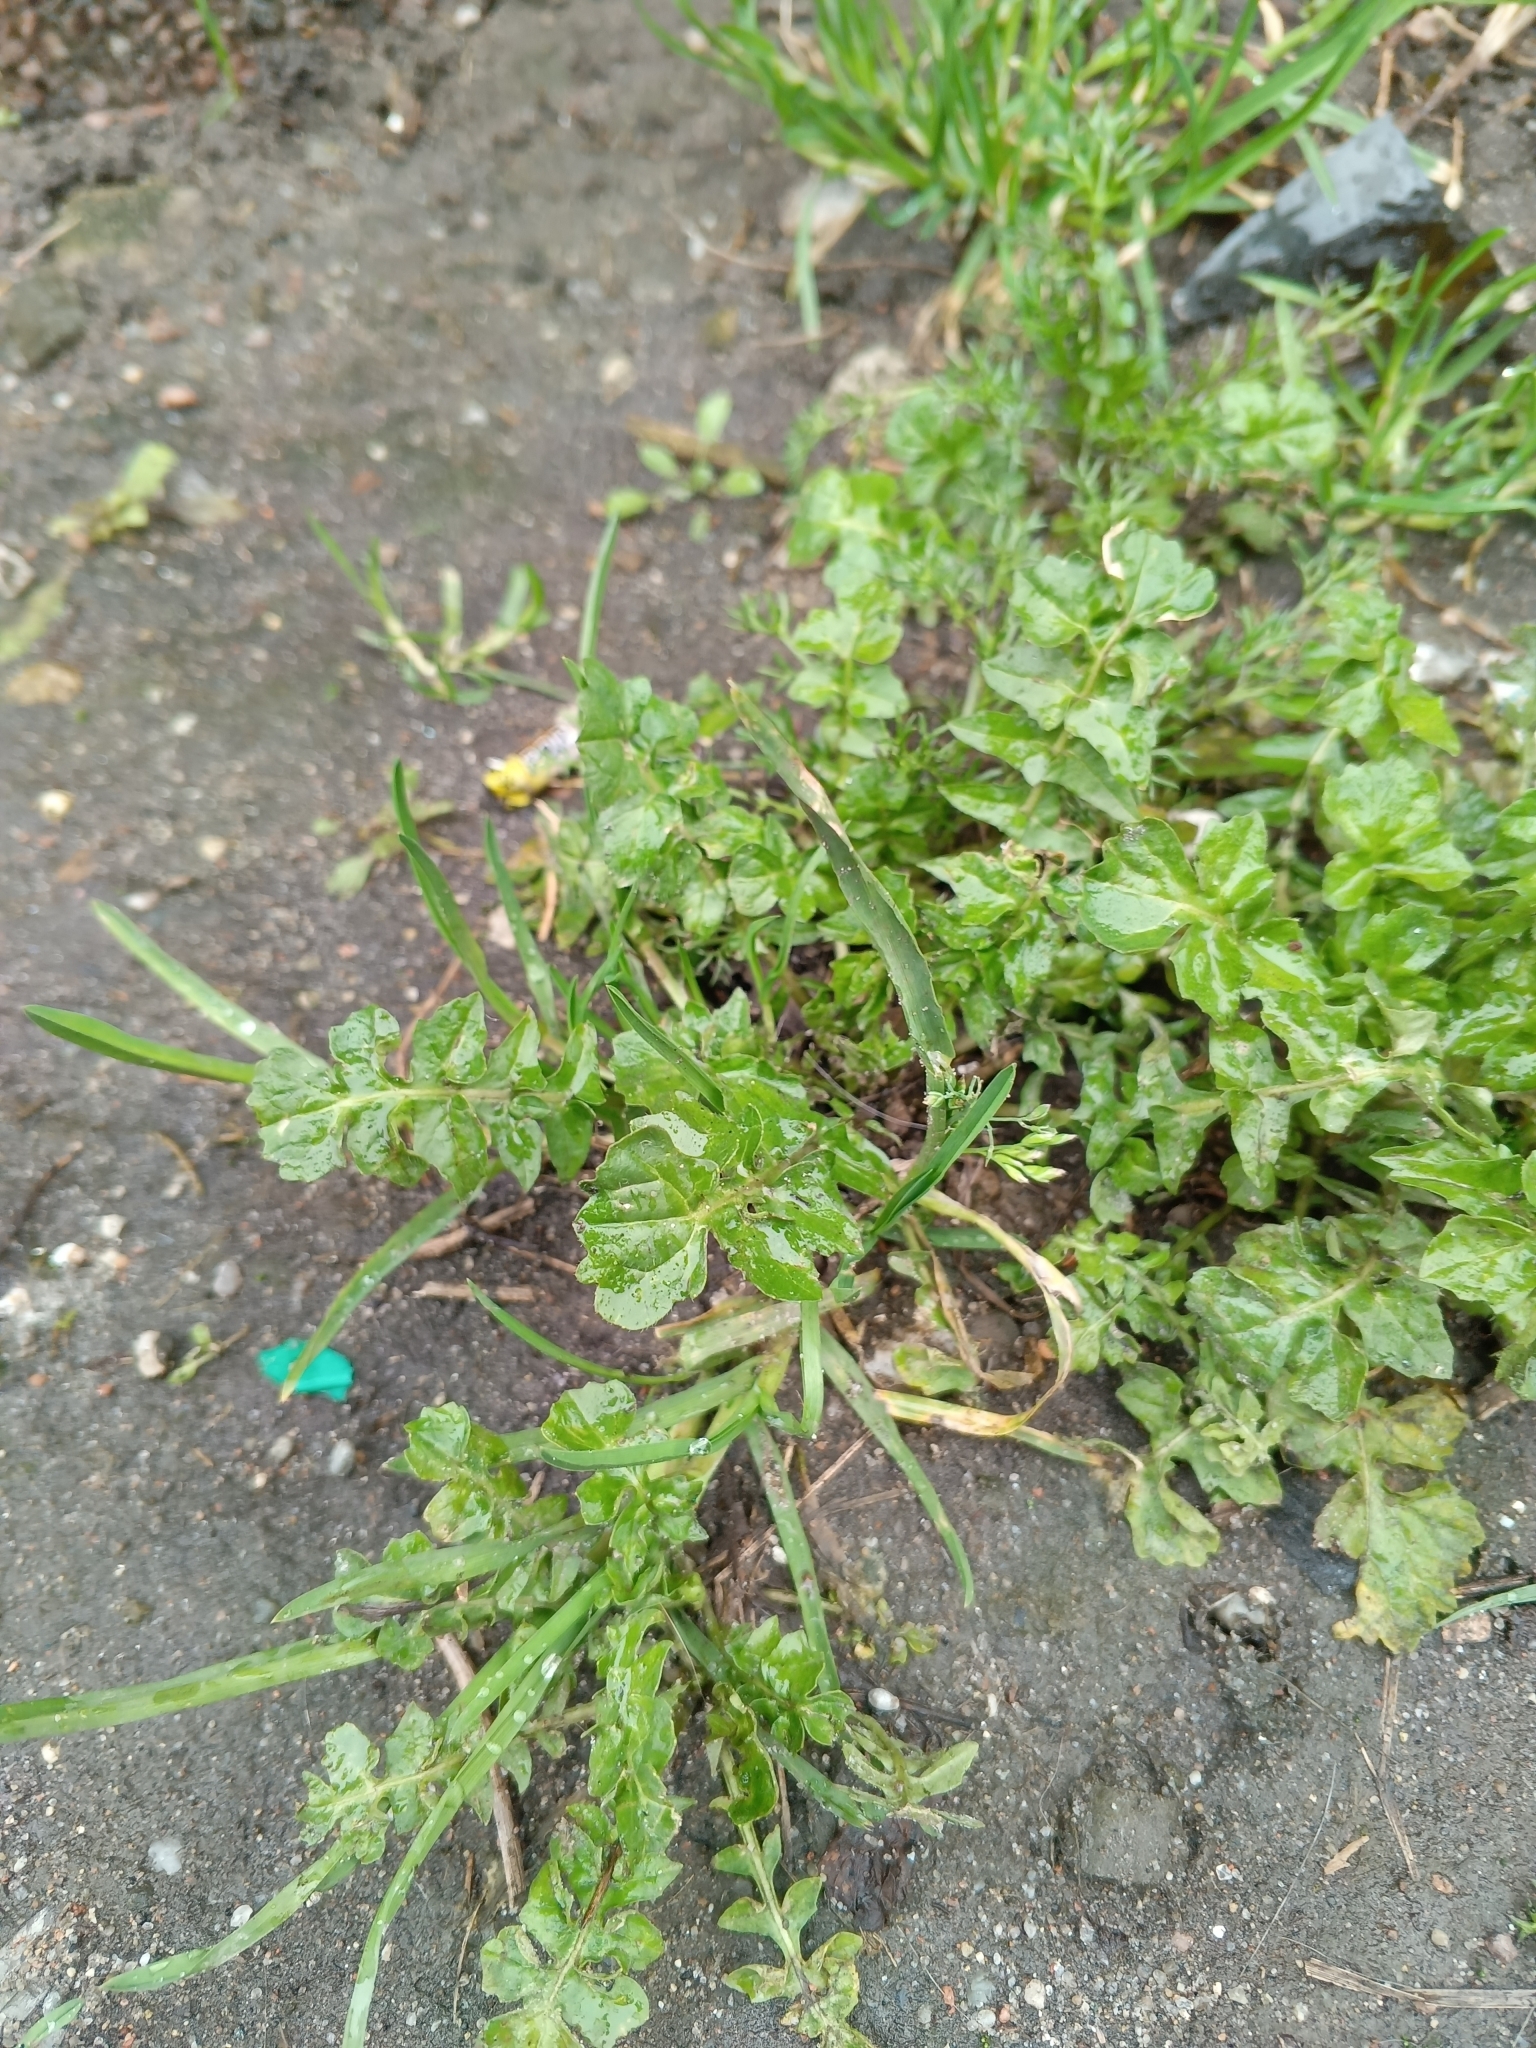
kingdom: Plantae
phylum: Tracheophyta
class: Magnoliopsida
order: Brassicales
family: Brassicaceae
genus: Sisymbrium
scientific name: Sisymbrium officinale
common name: Hedge mustard
